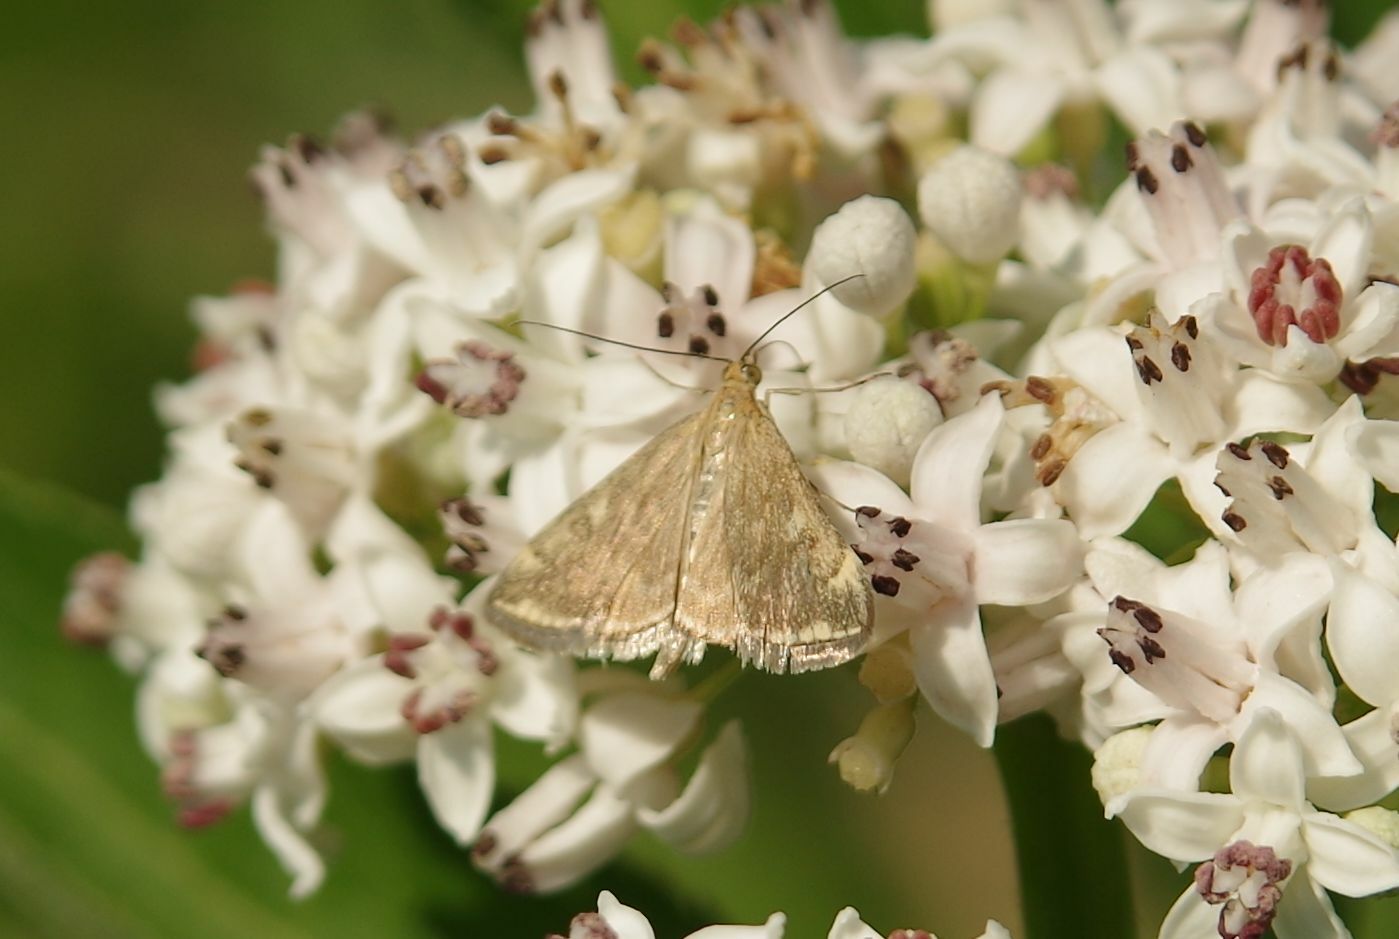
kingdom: Animalia
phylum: Arthropoda
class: Insecta
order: Lepidoptera
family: Crambidae
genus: Loxostege
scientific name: Loxostege sticticalis
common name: Crambid moth
